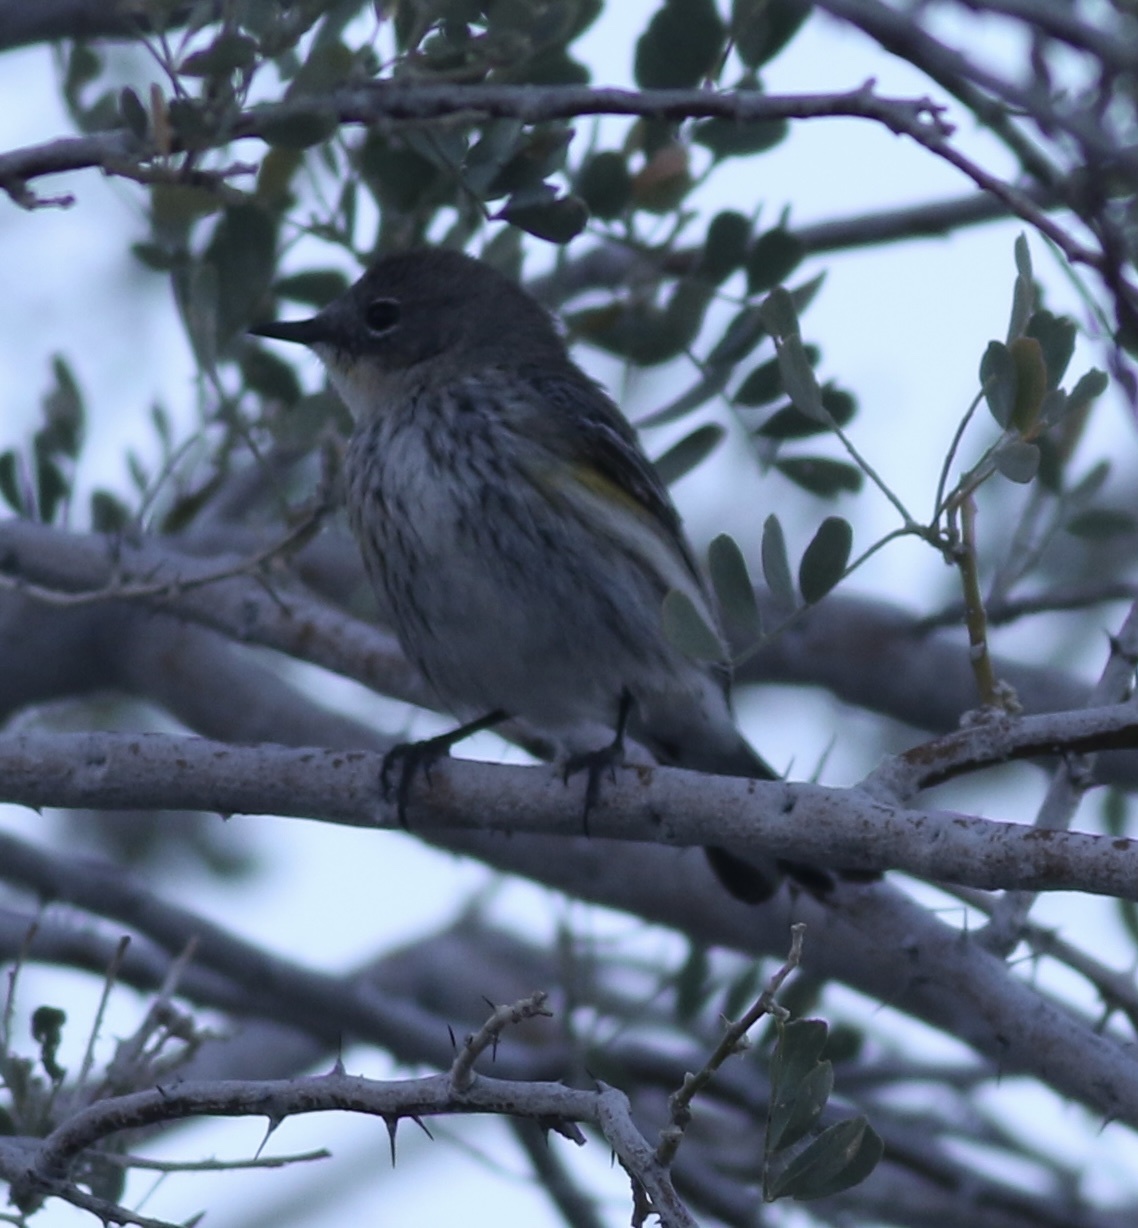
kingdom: Animalia
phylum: Chordata
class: Aves
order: Passeriformes
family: Parulidae
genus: Setophaga
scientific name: Setophaga coronata
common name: Myrtle warbler
